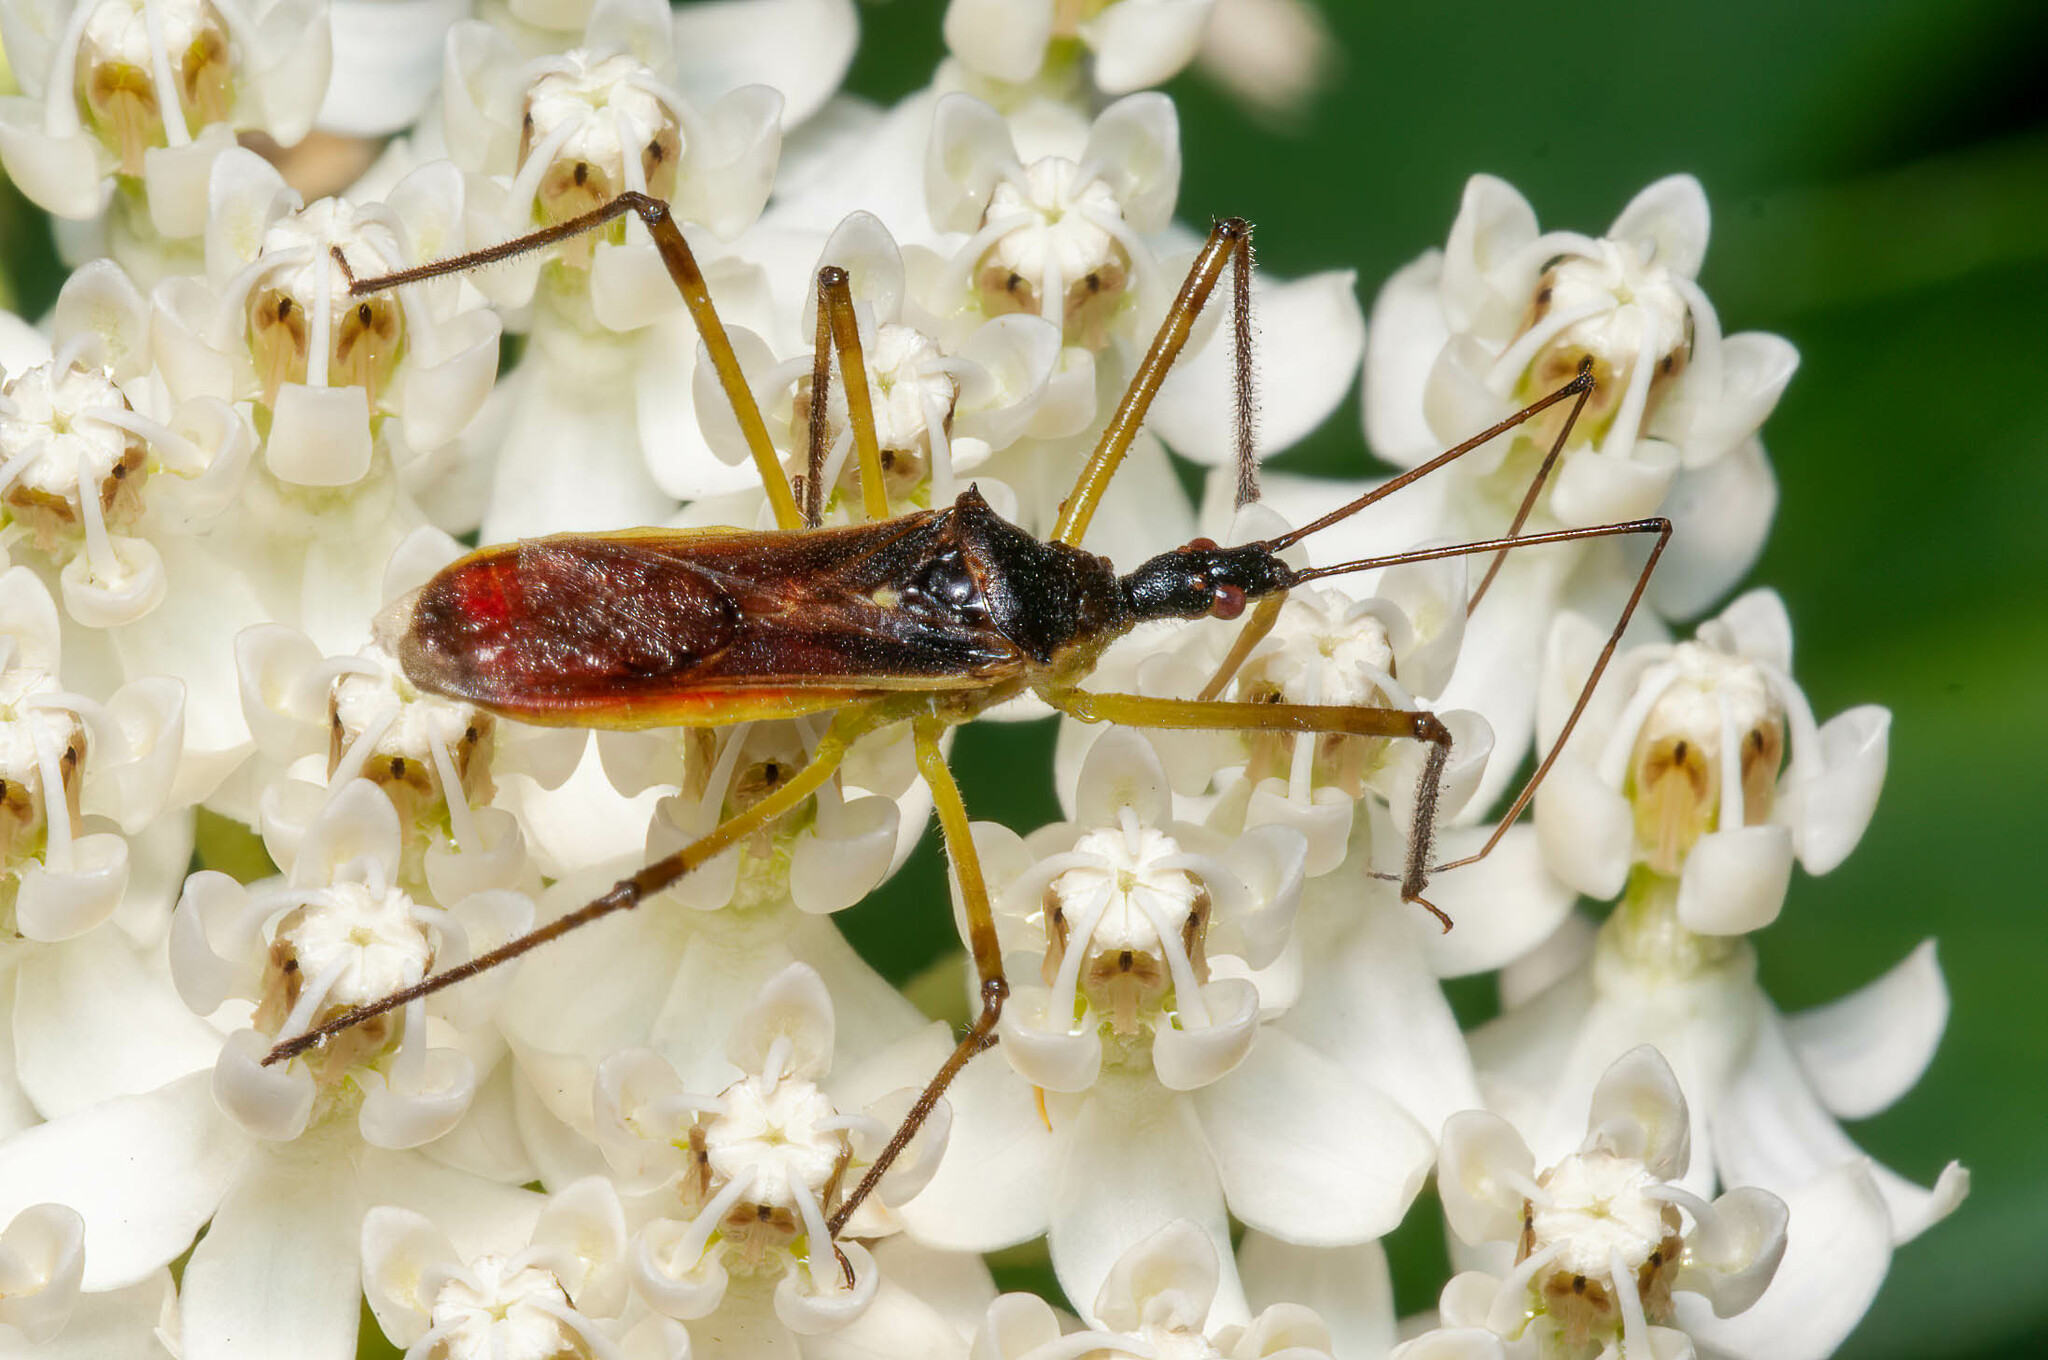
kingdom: Animalia
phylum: Arthropoda
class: Insecta
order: Hemiptera
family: Reduviidae
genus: Zelus
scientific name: Zelus luridus
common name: Pale green assassin bug
